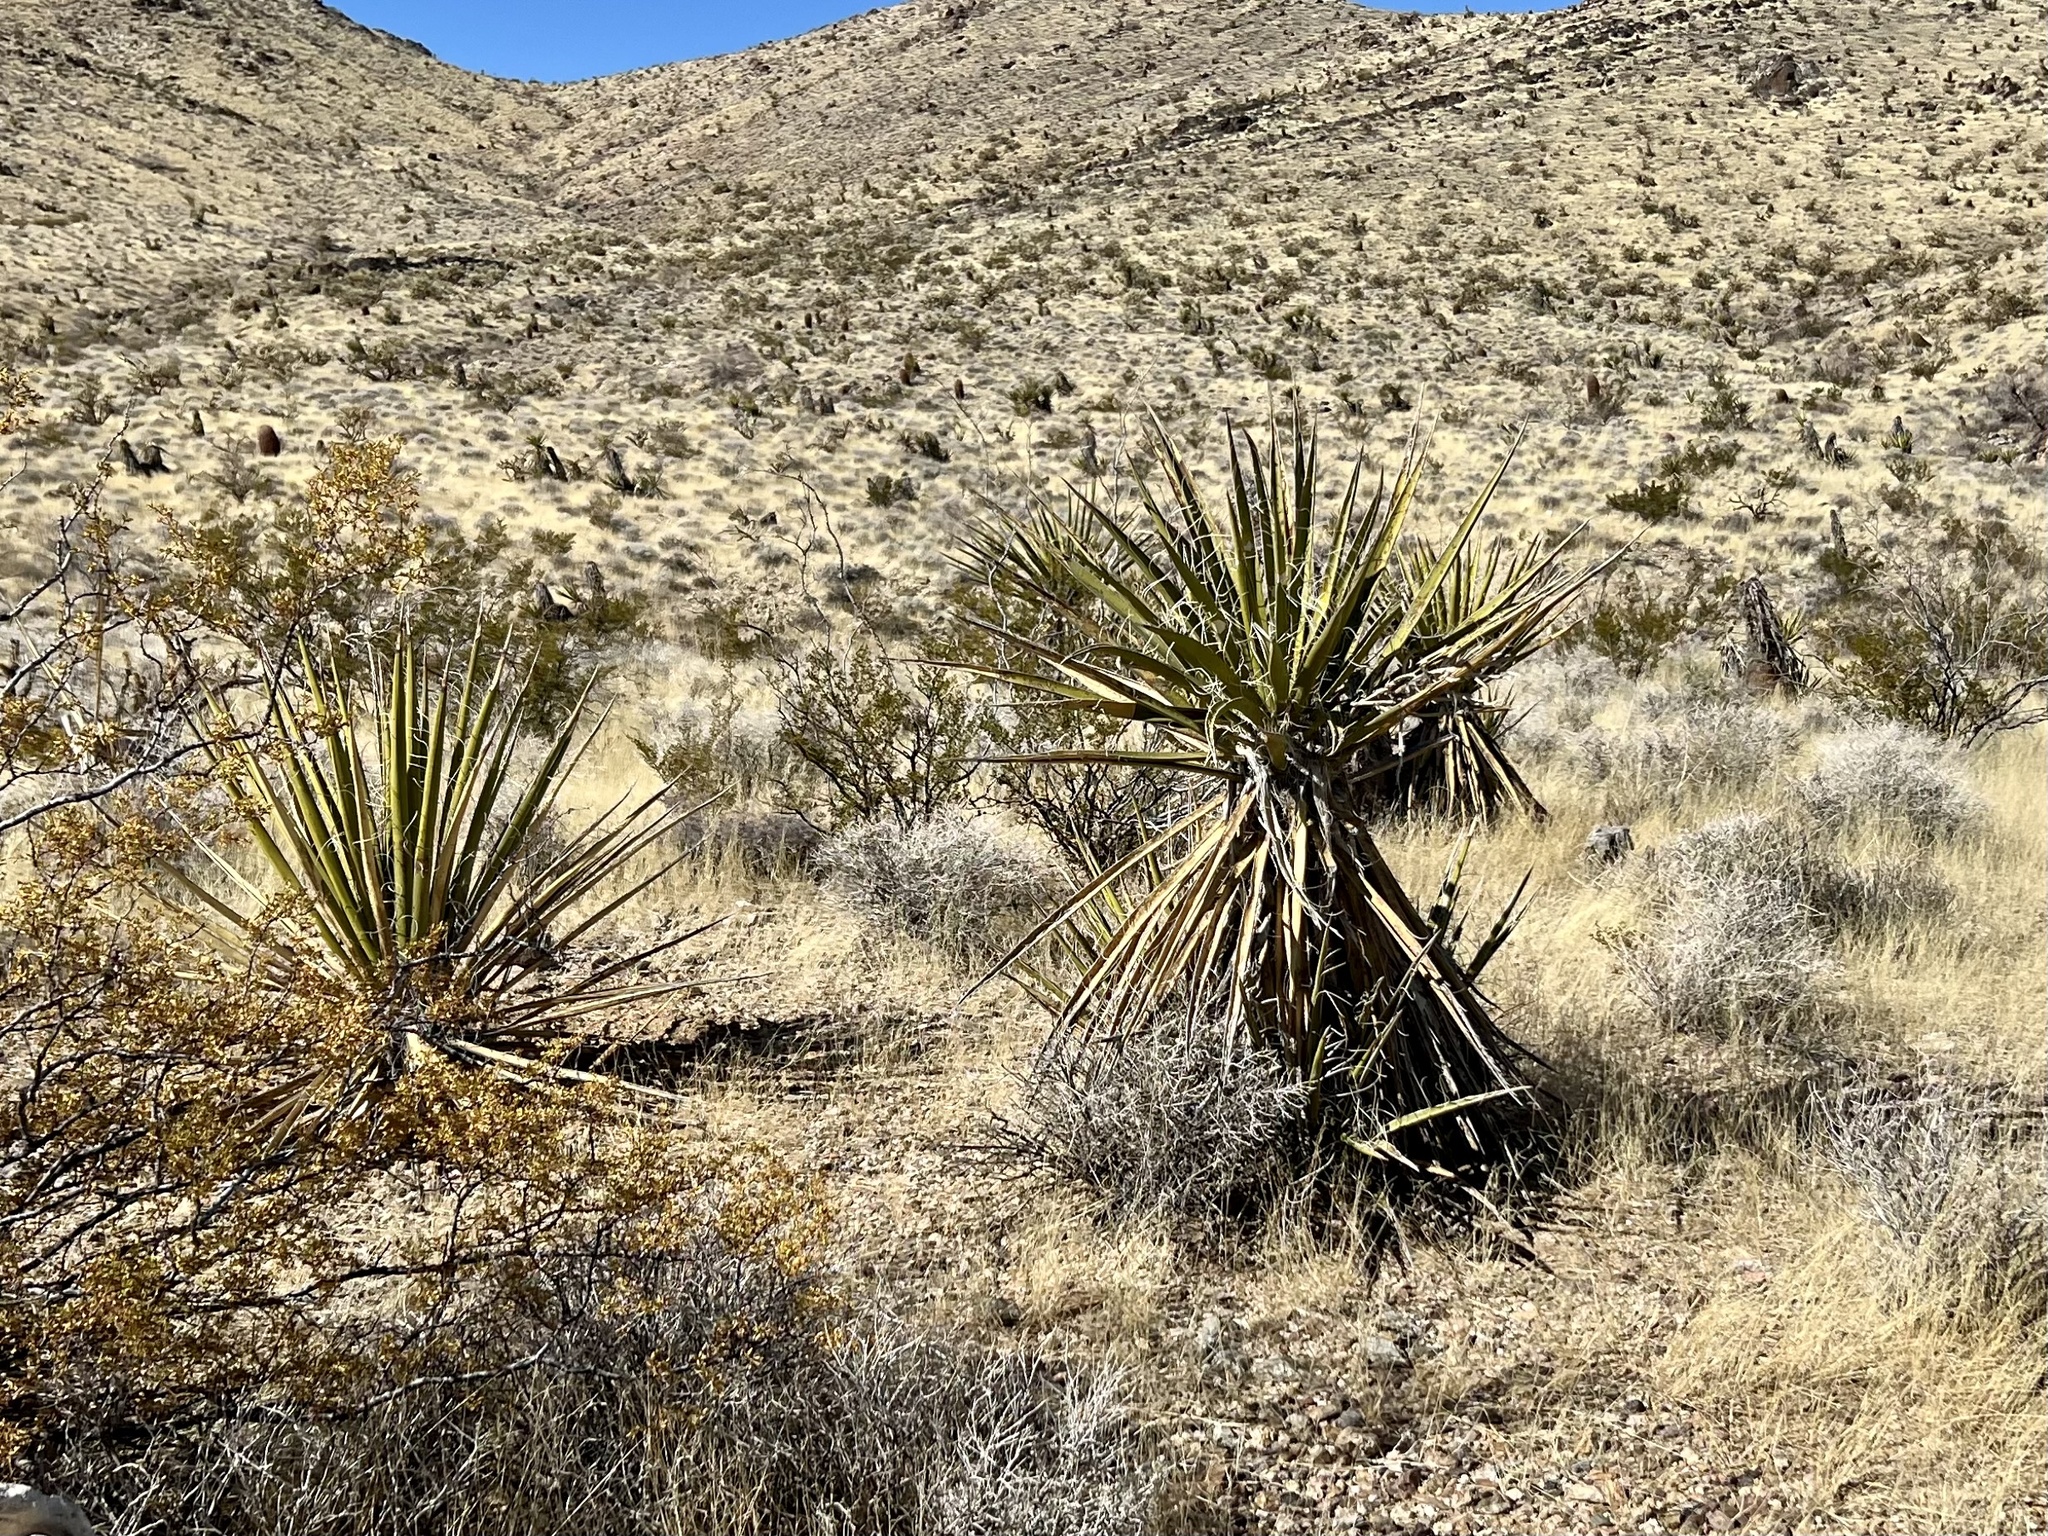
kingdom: Plantae
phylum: Tracheophyta
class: Liliopsida
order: Asparagales
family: Asparagaceae
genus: Yucca
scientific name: Yucca schidigera
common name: Mojave yucca
